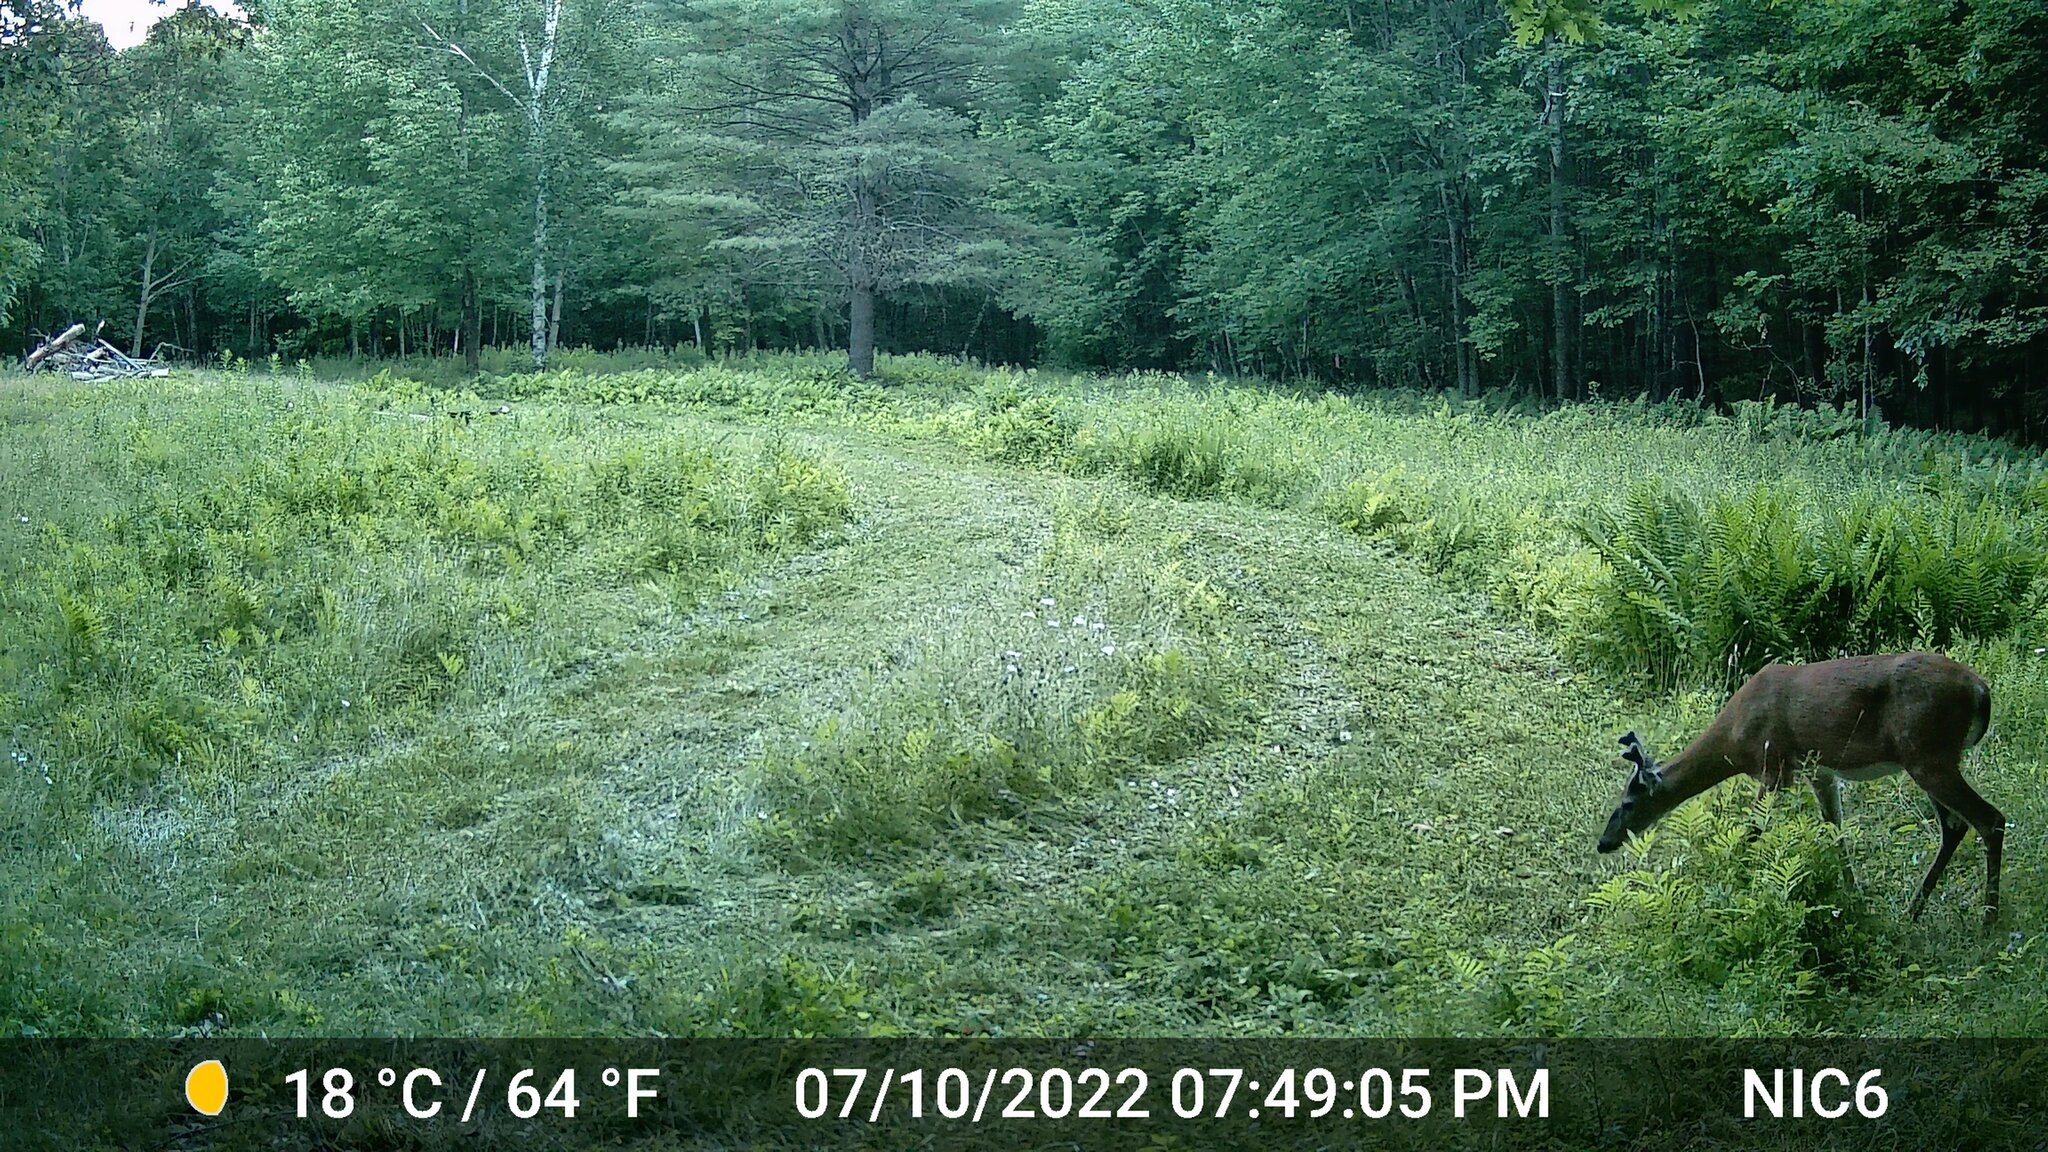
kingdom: Animalia
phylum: Chordata
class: Mammalia
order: Artiodactyla
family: Cervidae
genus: Odocoileus
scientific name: Odocoileus virginianus
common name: White-tailed deer
